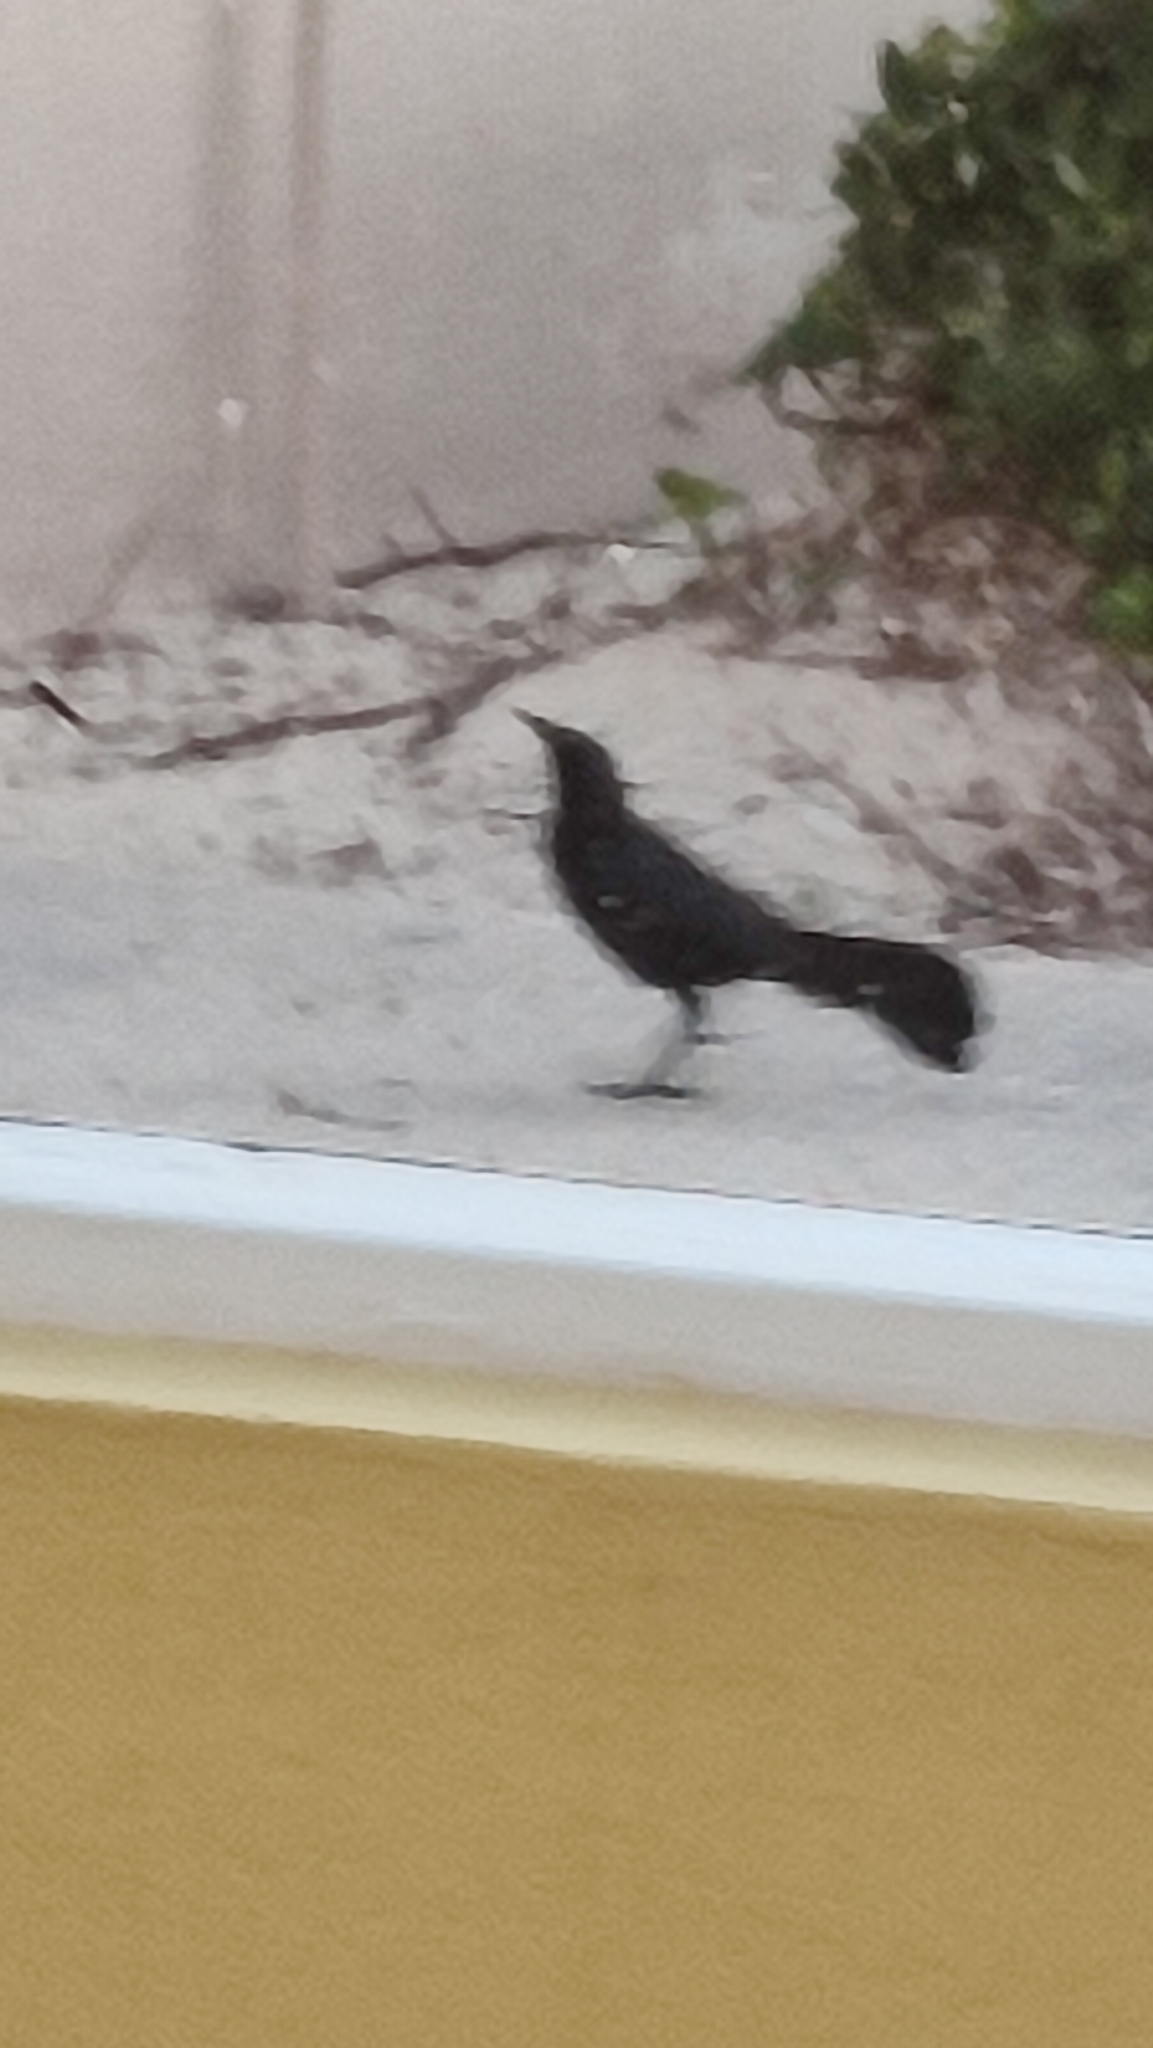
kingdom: Animalia
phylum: Chordata
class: Aves
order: Passeriformes
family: Icteridae
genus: Quiscalus
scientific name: Quiscalus niger
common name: Greater antillean grackle
